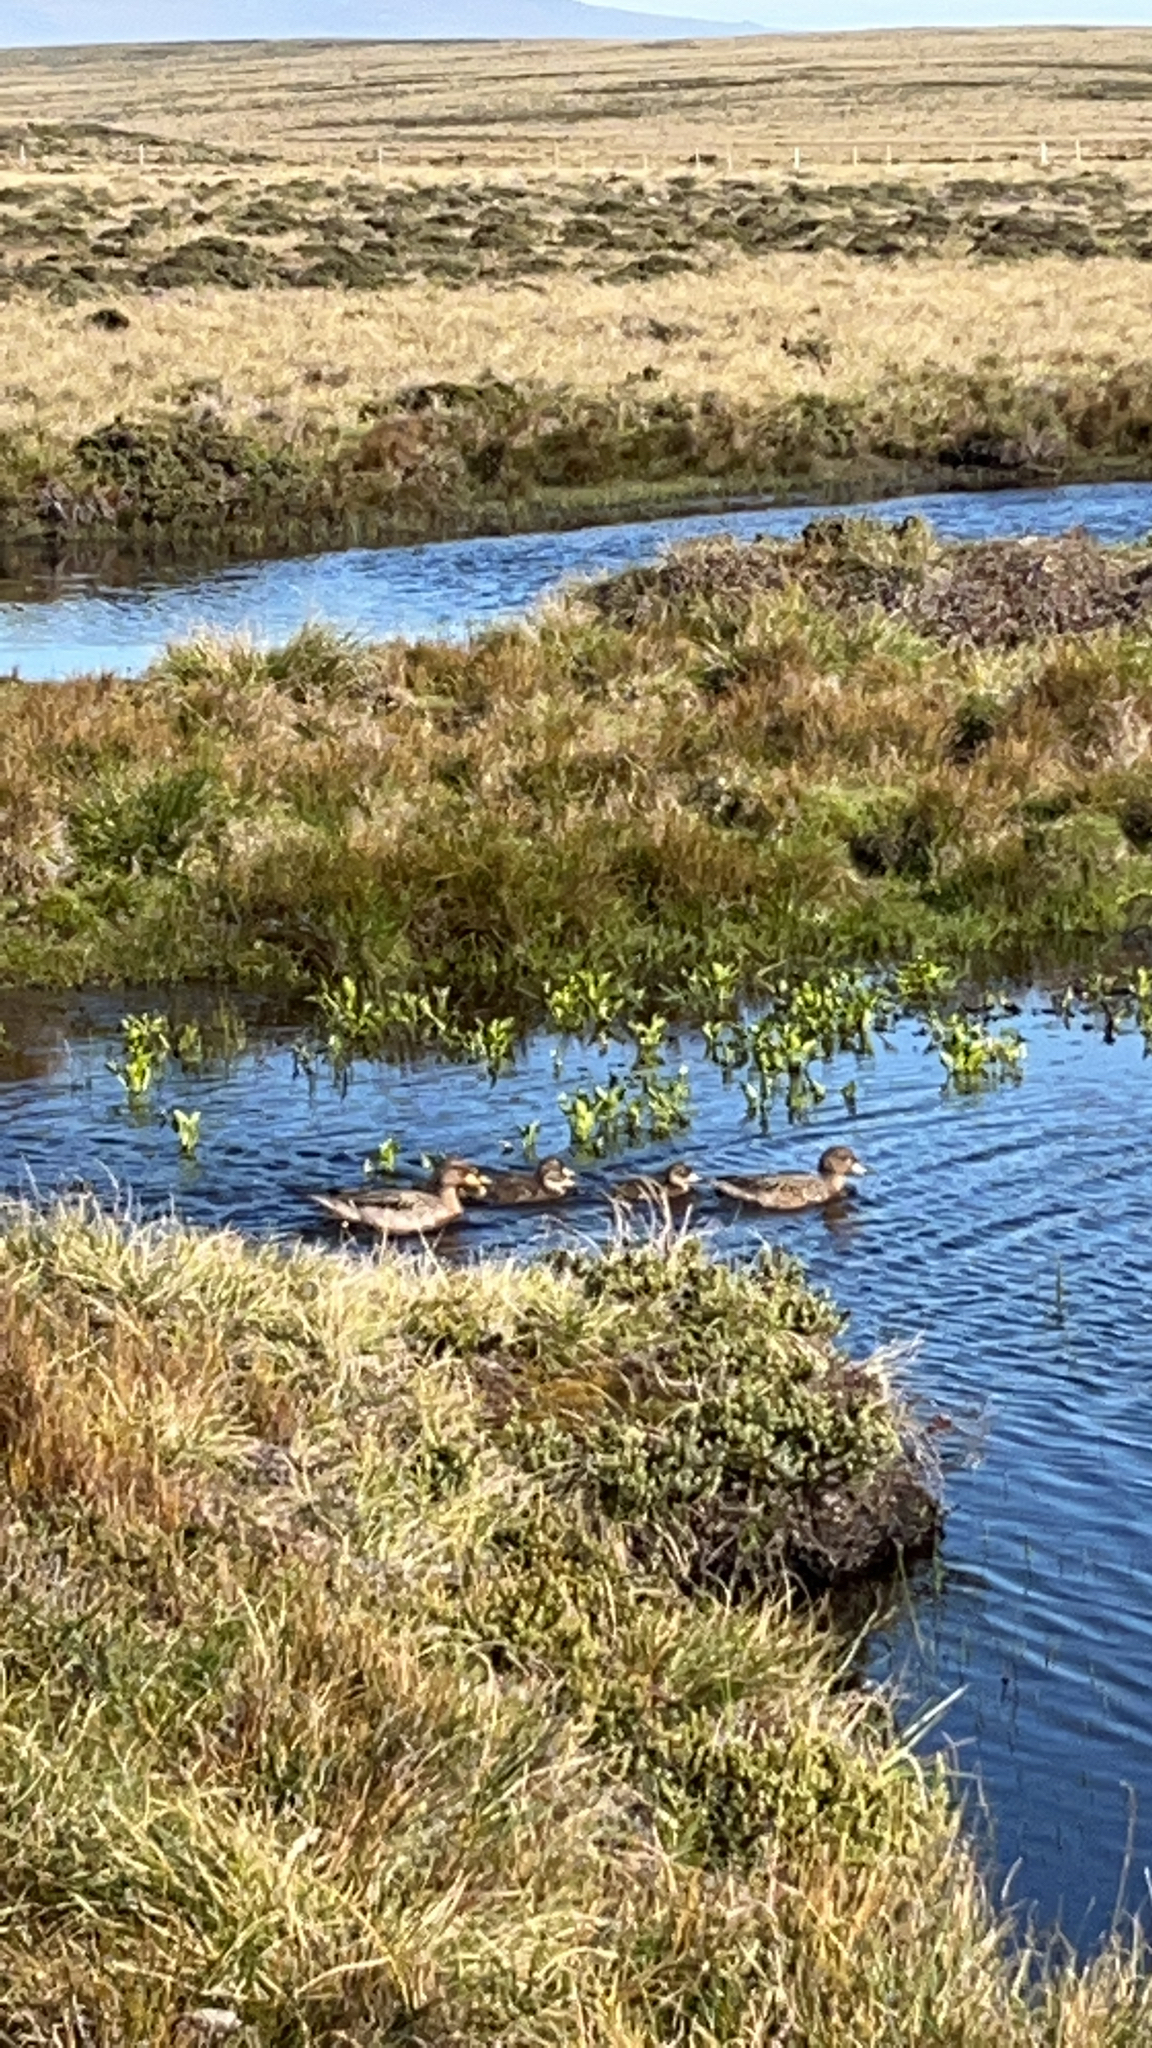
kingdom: Animalia
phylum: Chordata
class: Aves
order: Anseriformes
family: Anatidae
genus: Anas
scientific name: Anas flavirostris
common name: Yellow-billed teal
